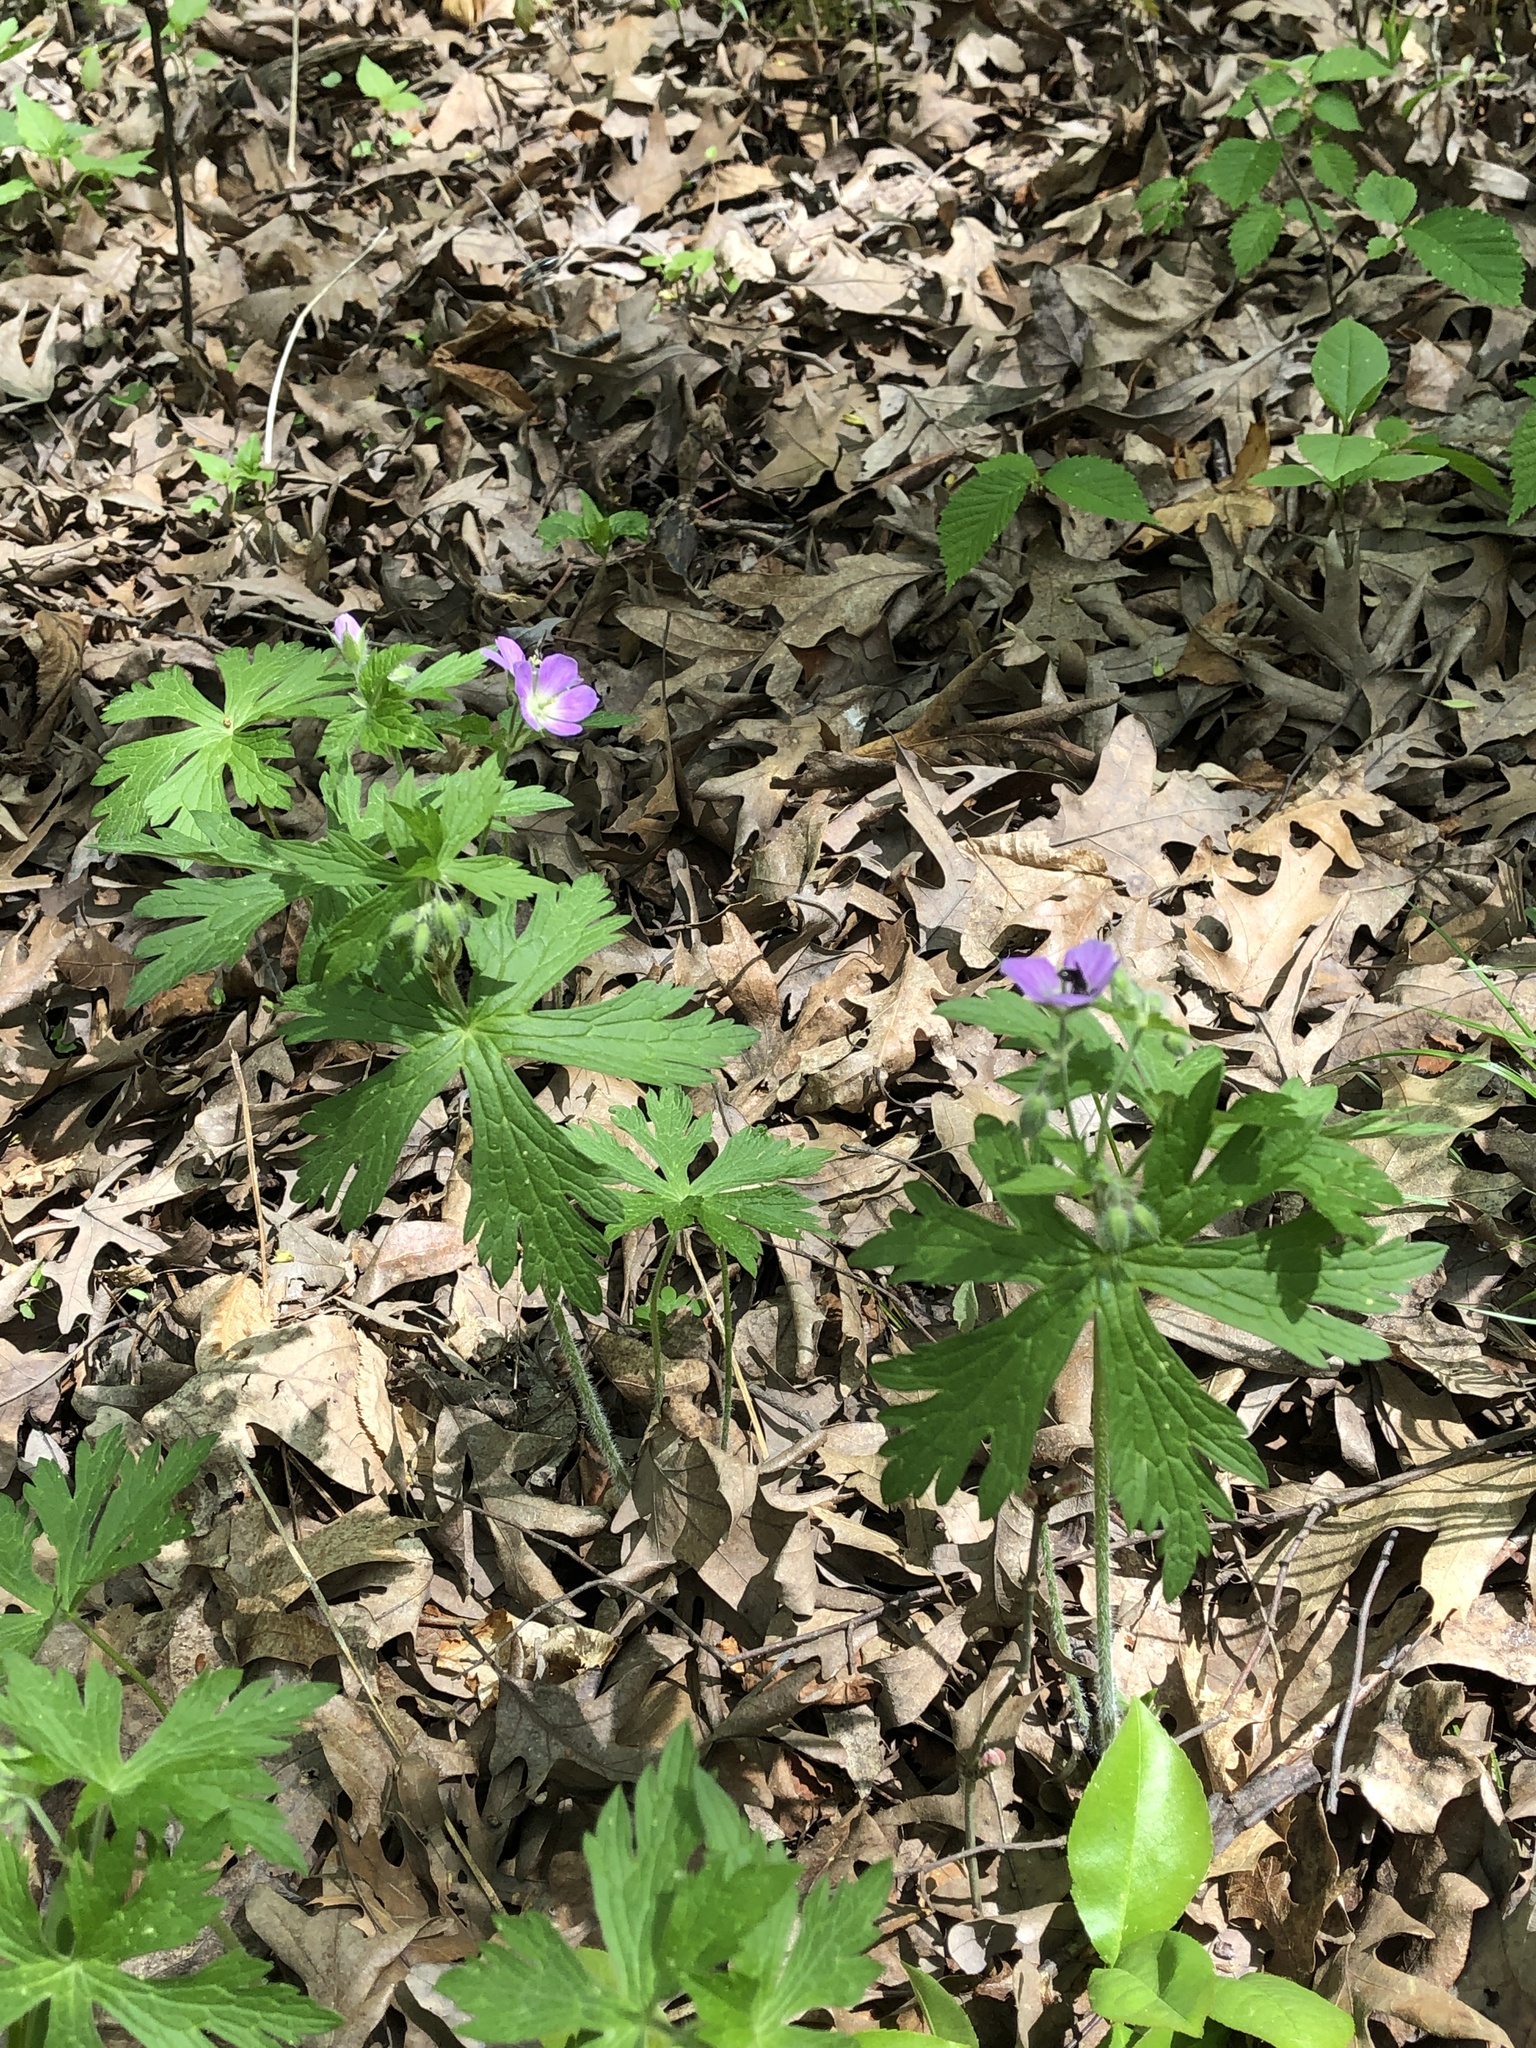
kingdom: Plantae
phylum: Tracheophyta
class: Magnoliopsida
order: Geraniales
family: Geraniaceae
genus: Geranium
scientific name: Geranium maculatum
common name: Spotted geranium
